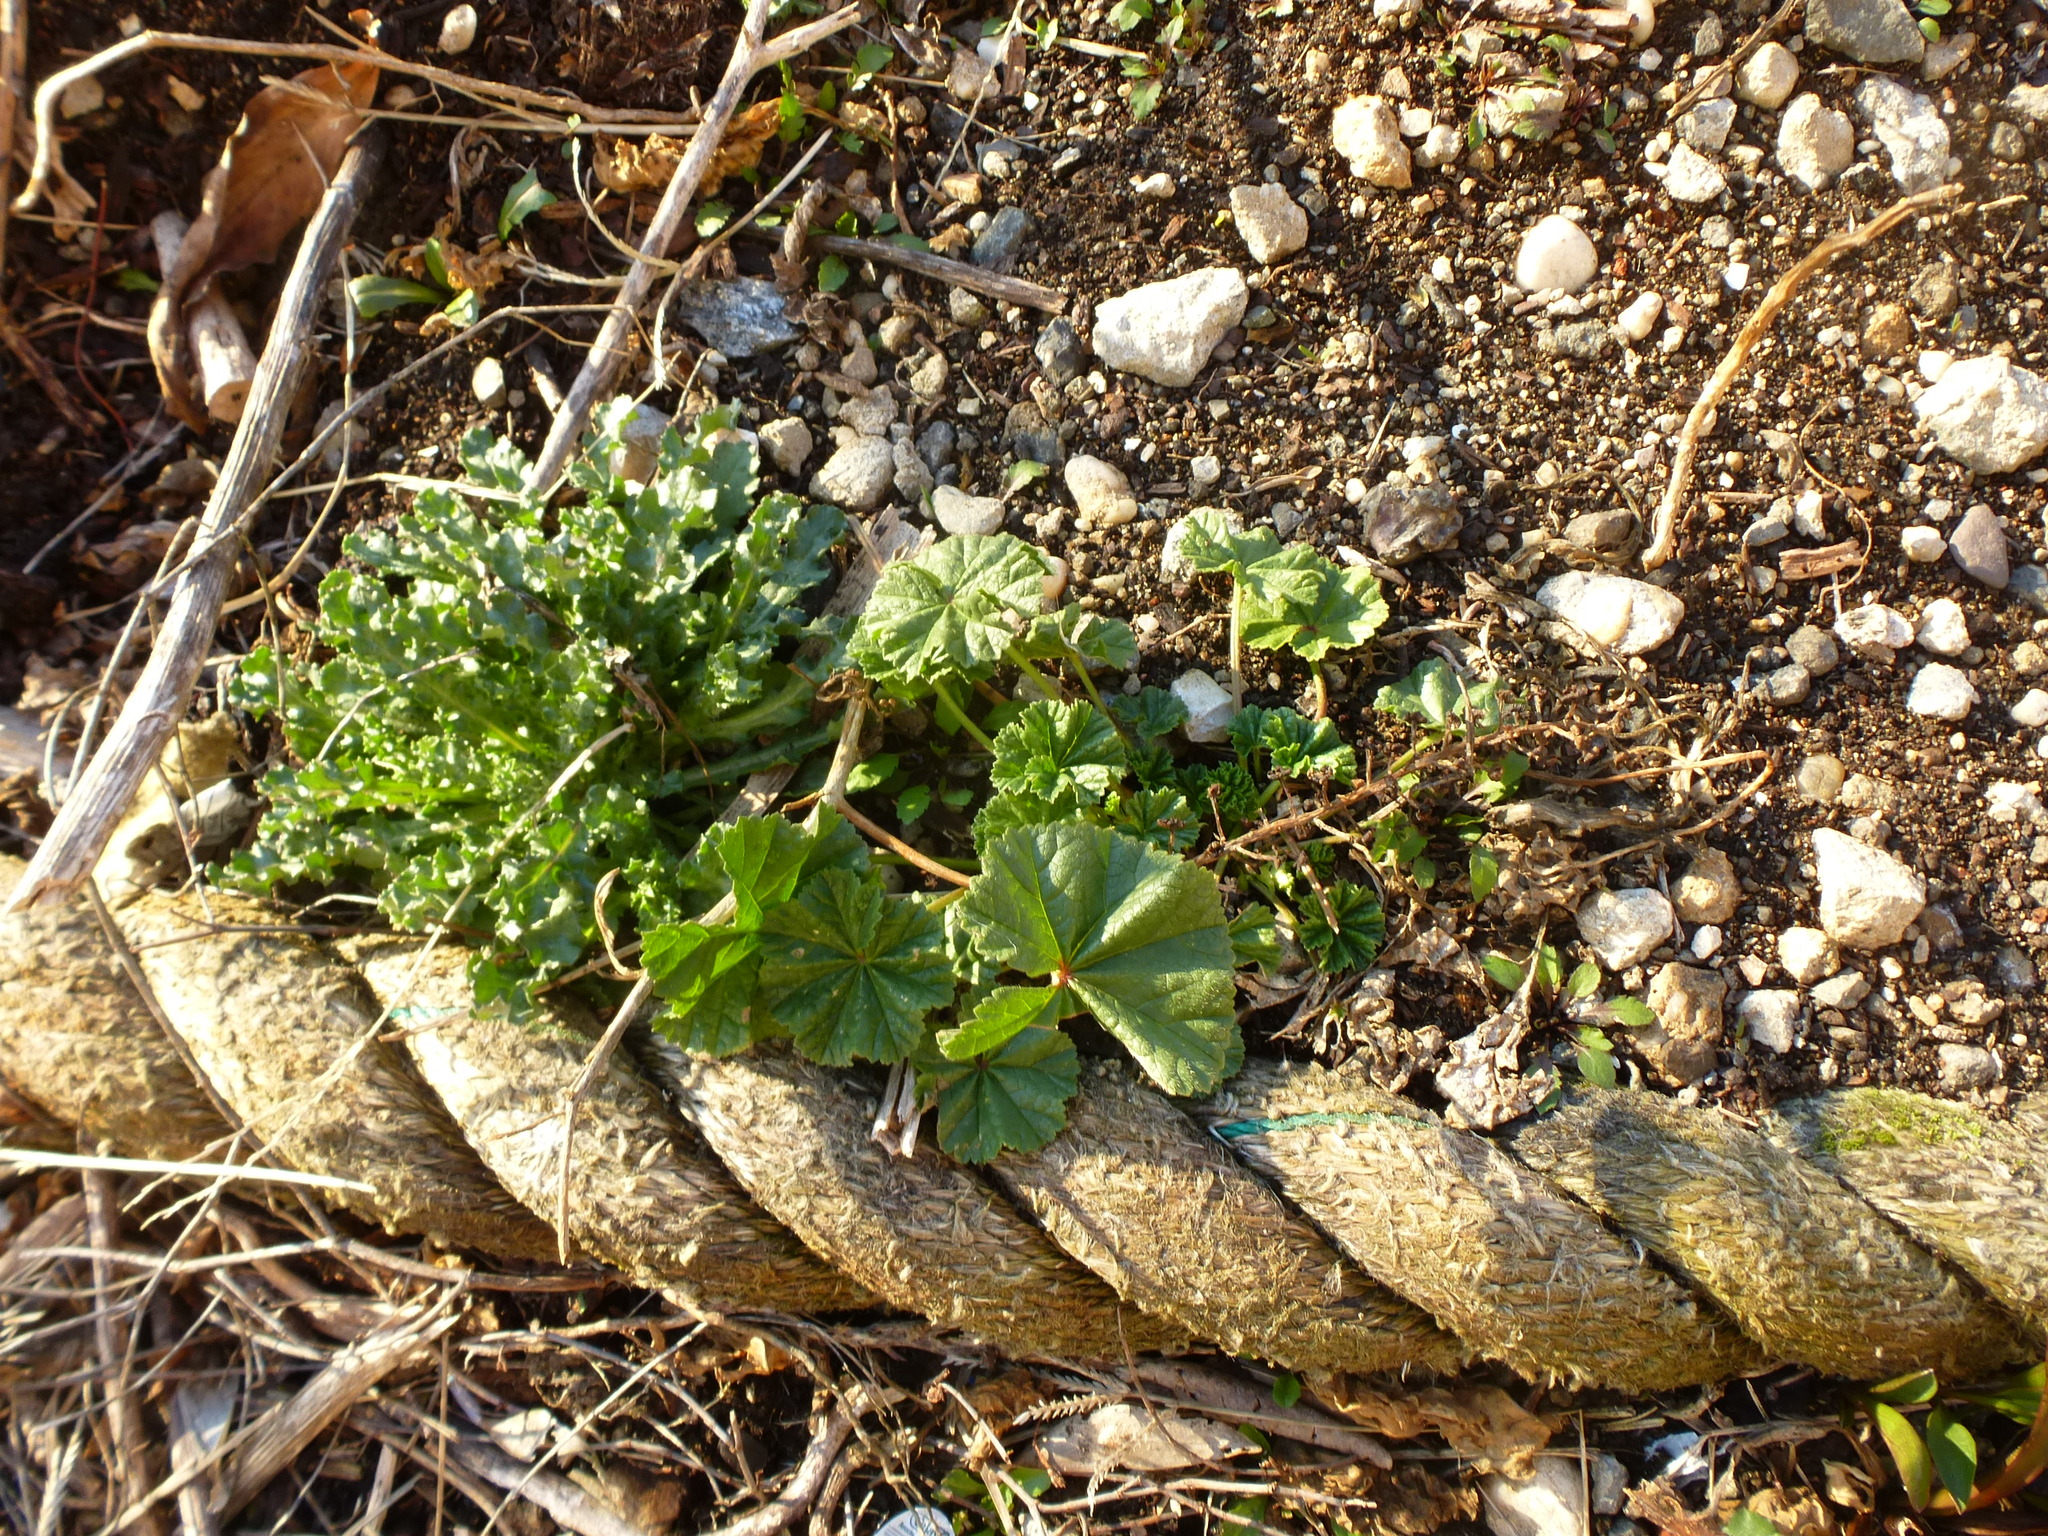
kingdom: Plantae
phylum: Tracheophyta
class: Magnoliopsida
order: Malvales
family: Malvaceae
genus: Malva
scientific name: Malva neglecta
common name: Common mallow
